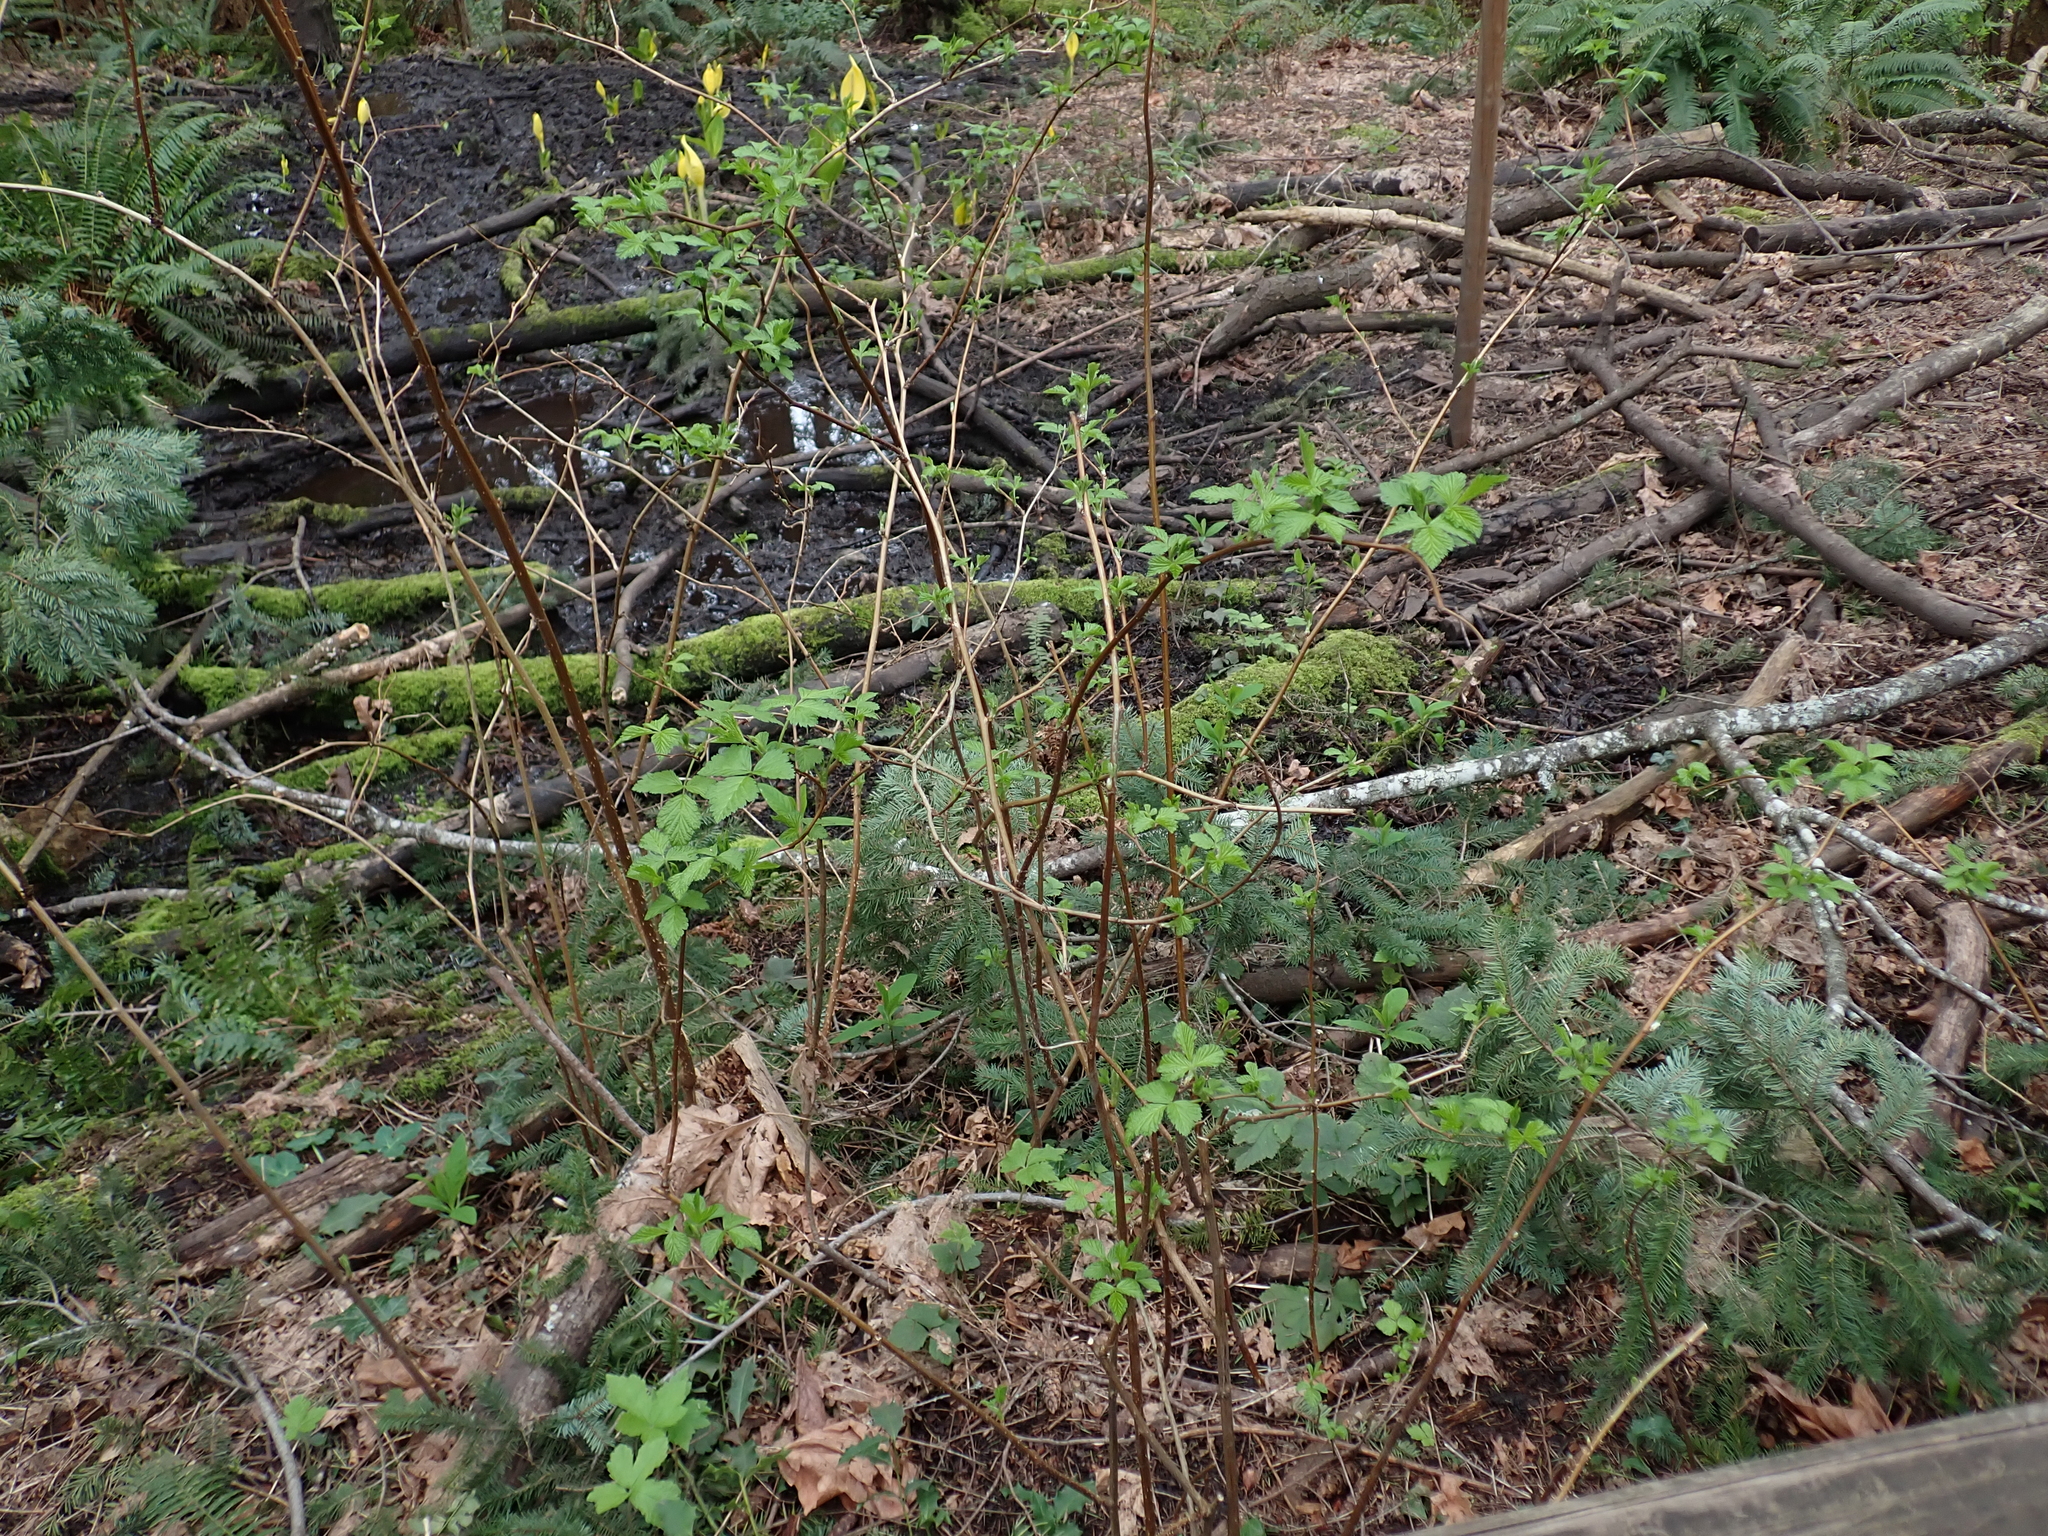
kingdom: Plantae
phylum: Tracheophyta
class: Magnoliopsida
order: Rosales
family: Rosaceae
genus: Rubus
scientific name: Rubus spectabilis
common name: Salmonberry
